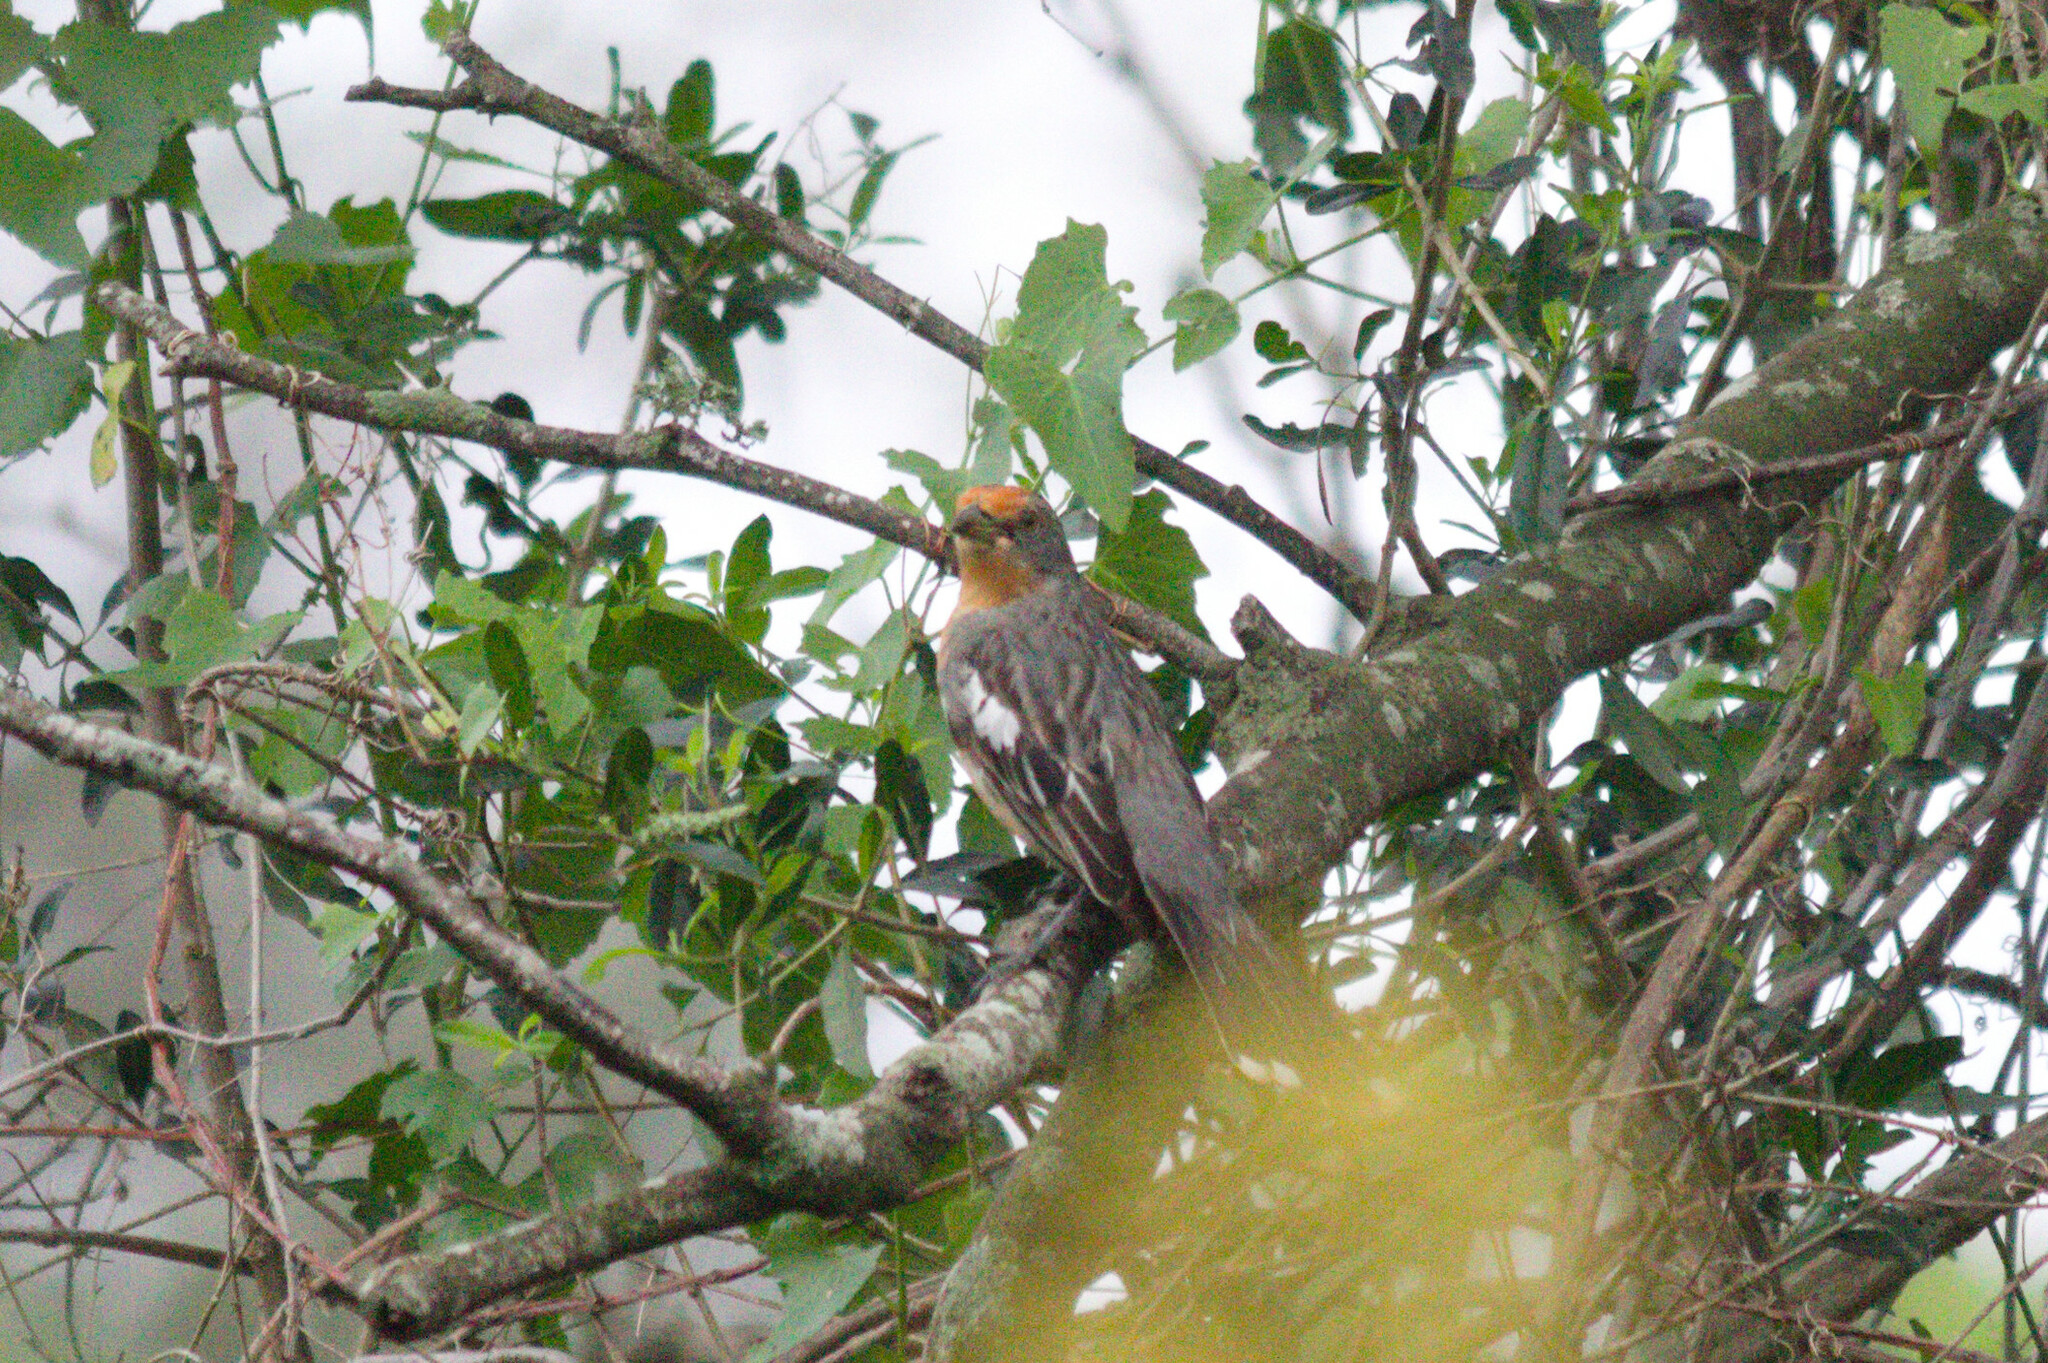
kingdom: Animalia
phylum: Chordata
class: Aves
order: Passeriformes
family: Cotingidae
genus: Phytotoma
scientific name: Phytotoma rutila
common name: White-tipped plantcutter
